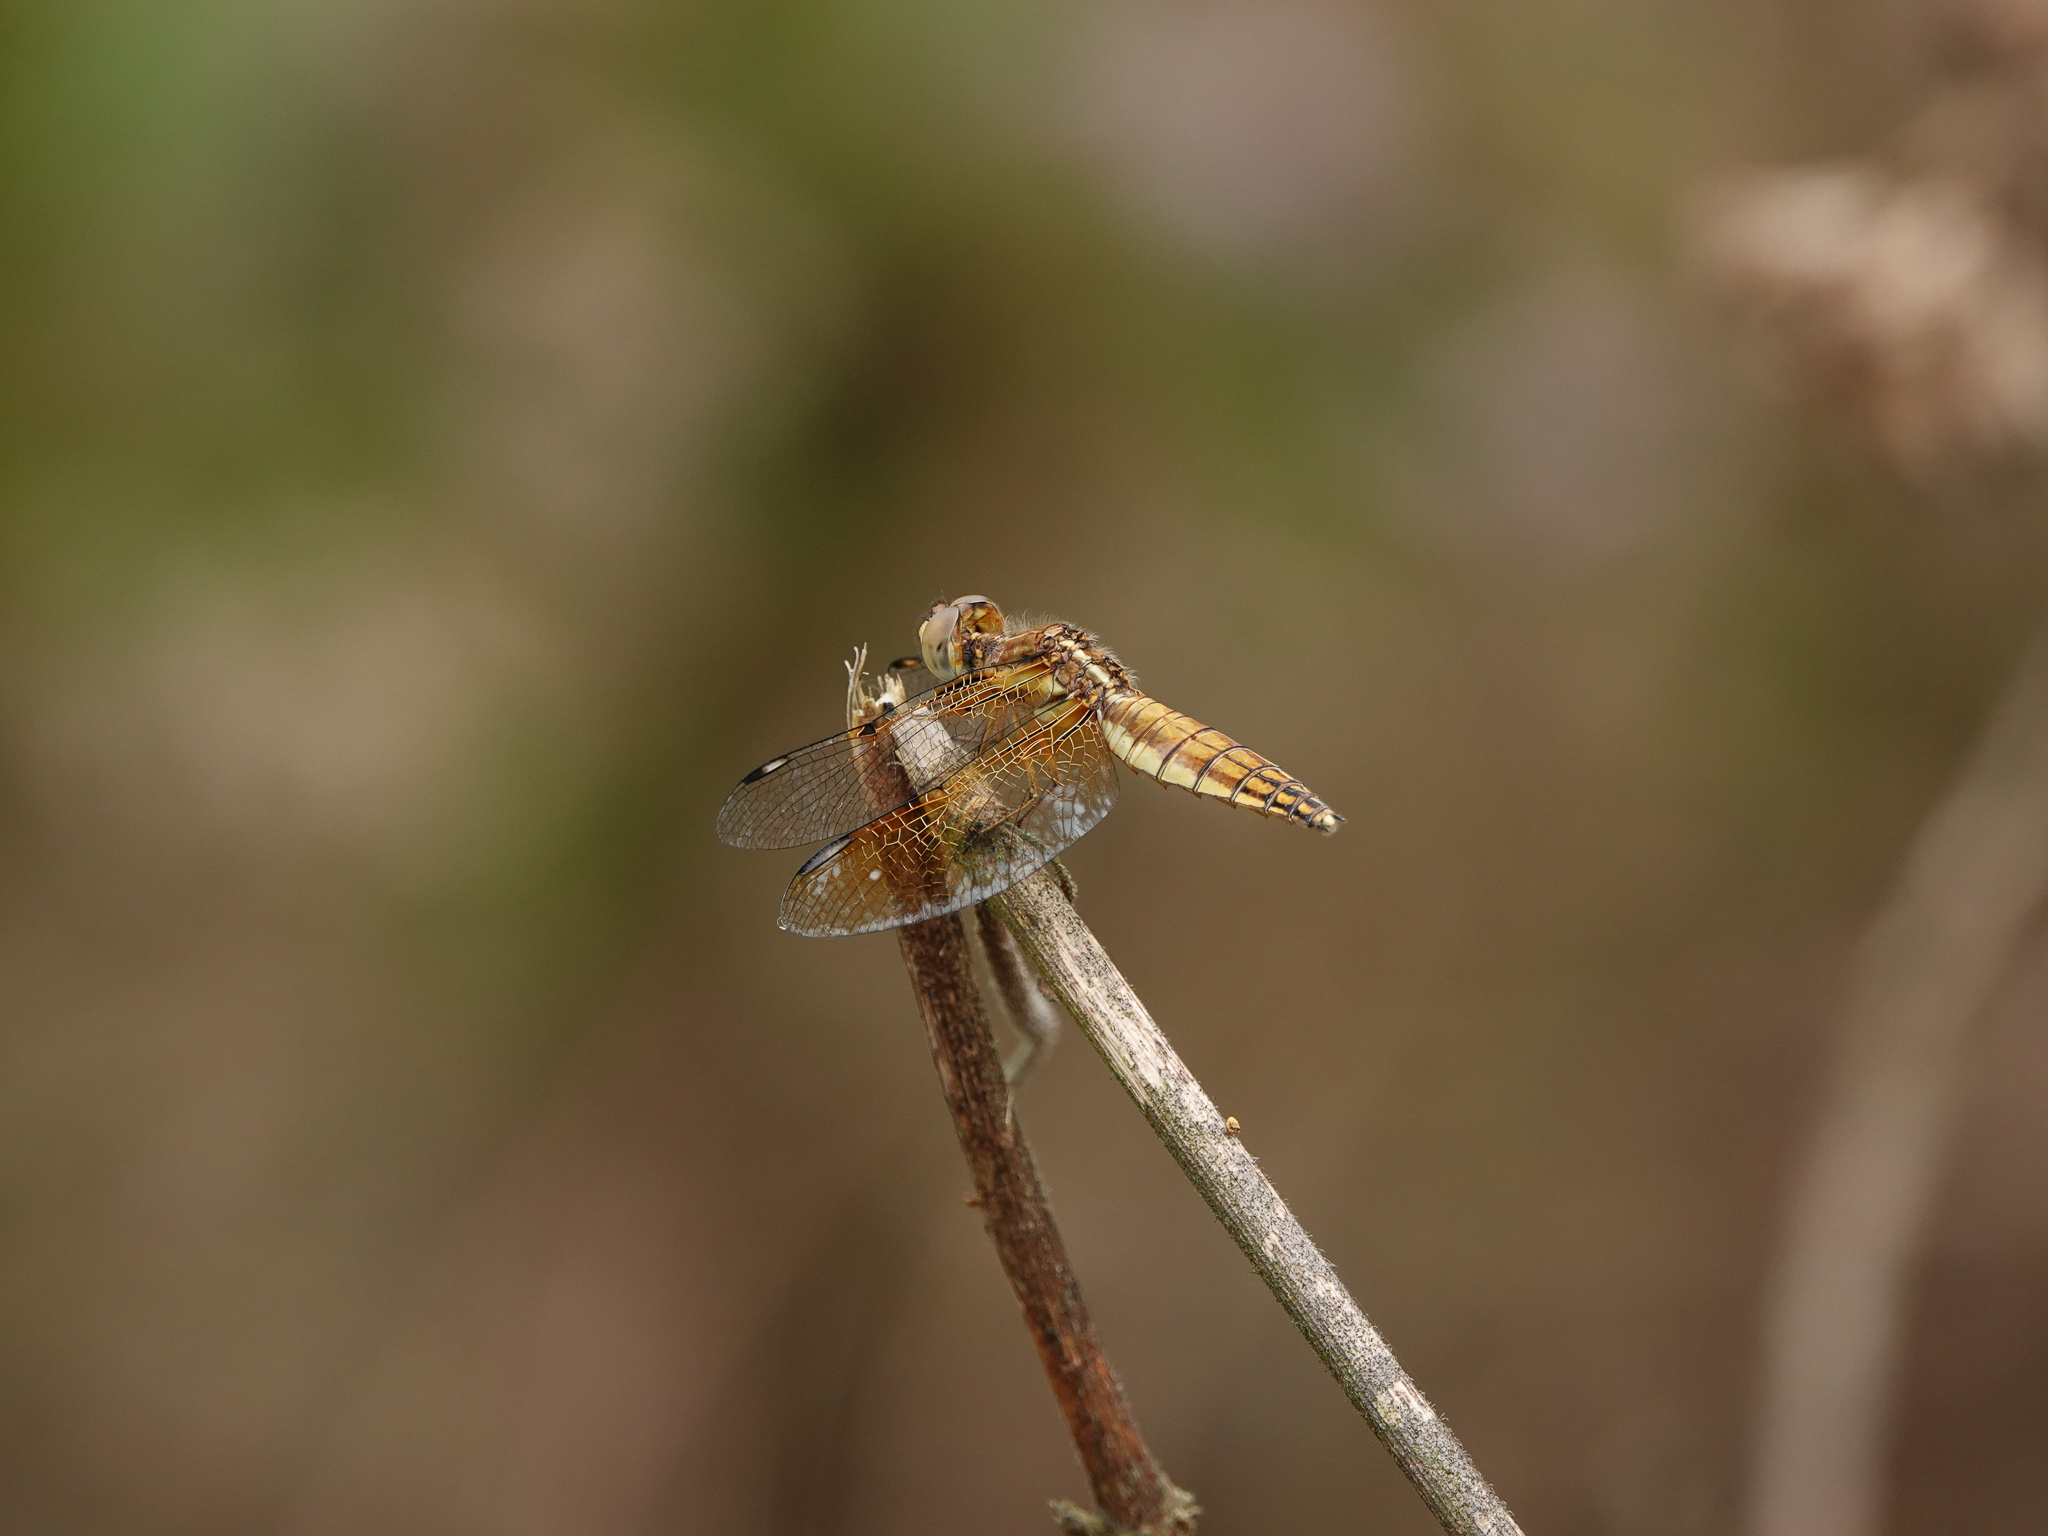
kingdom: Animalia
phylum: Arthropoda
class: Insecta
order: Odonata
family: Libellulidae
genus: Palpopleura
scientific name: Palpopleura sexmaculata
